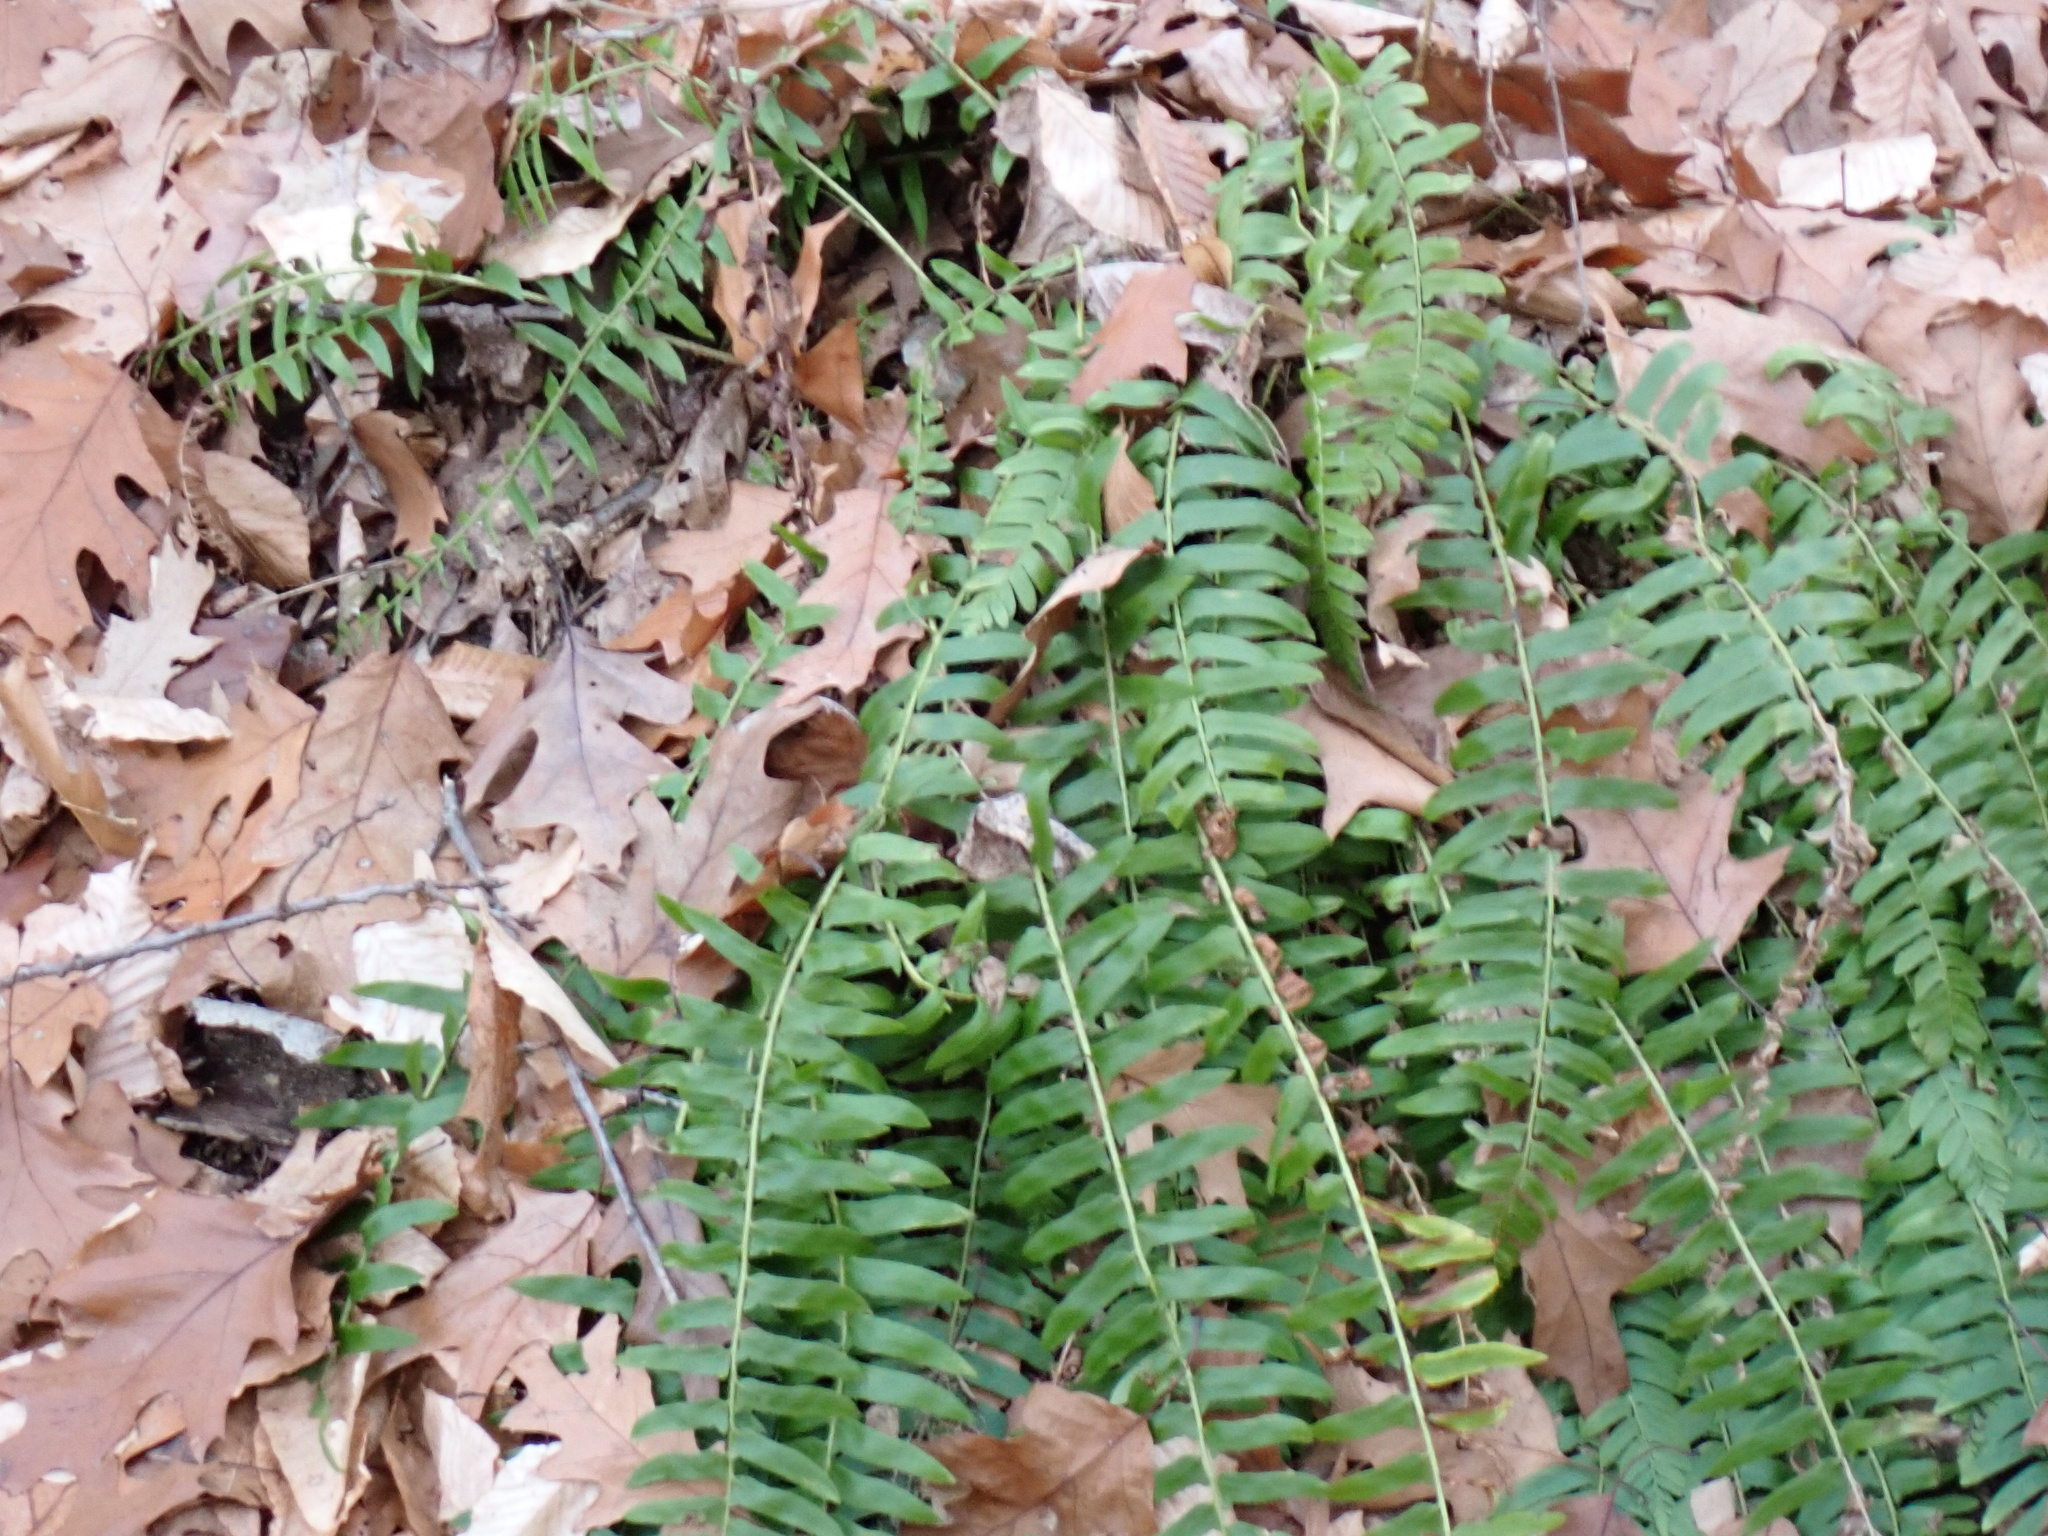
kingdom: Plantae
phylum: Tracheophyta
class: Polypodiopsida
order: Polypodiales
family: Dryopteridaceae
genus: Polystichum
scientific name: Polystichum acrostichoides
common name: Christmas fern
